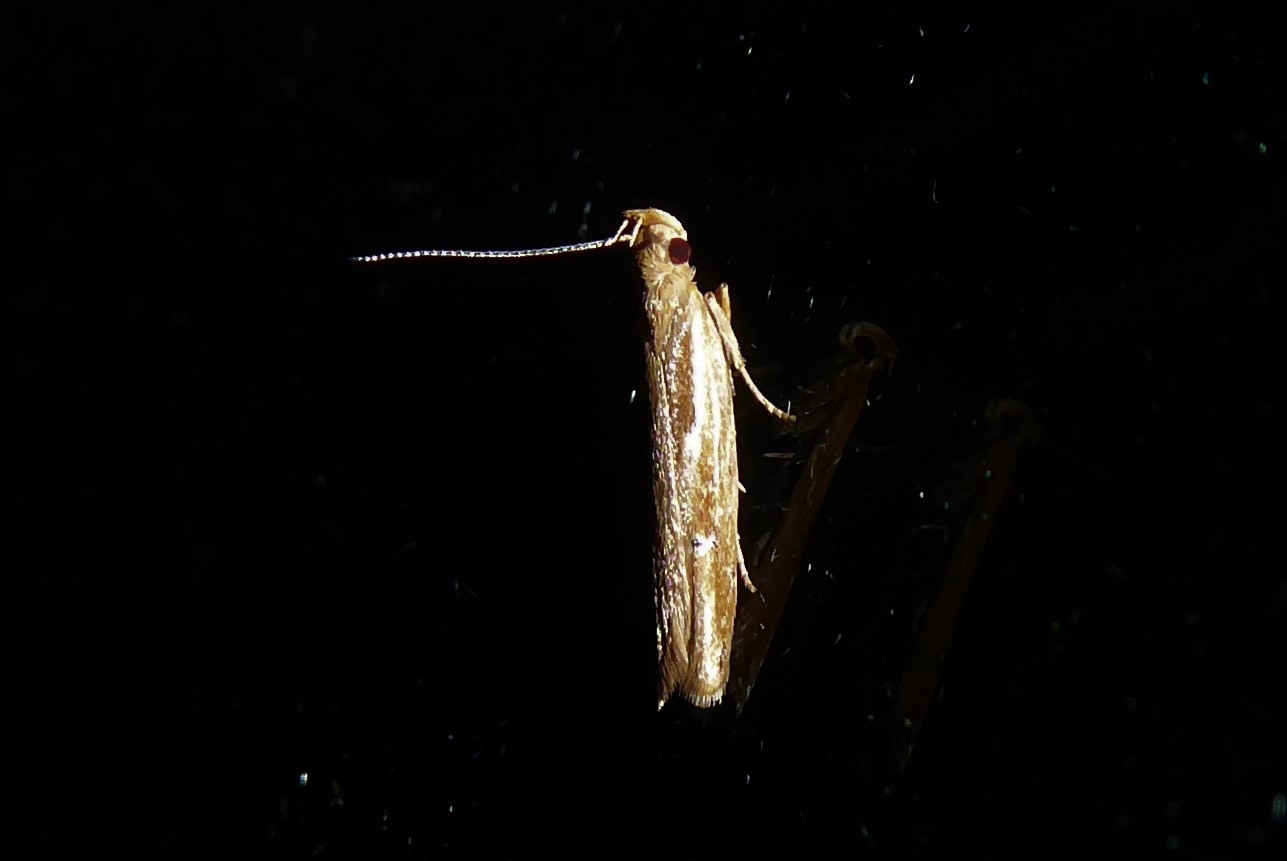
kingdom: Animalia
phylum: Arthropoda
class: Insecta
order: Lepidoptera
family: Depressariidae
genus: Eutorna
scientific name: Eutorna symmorpha
